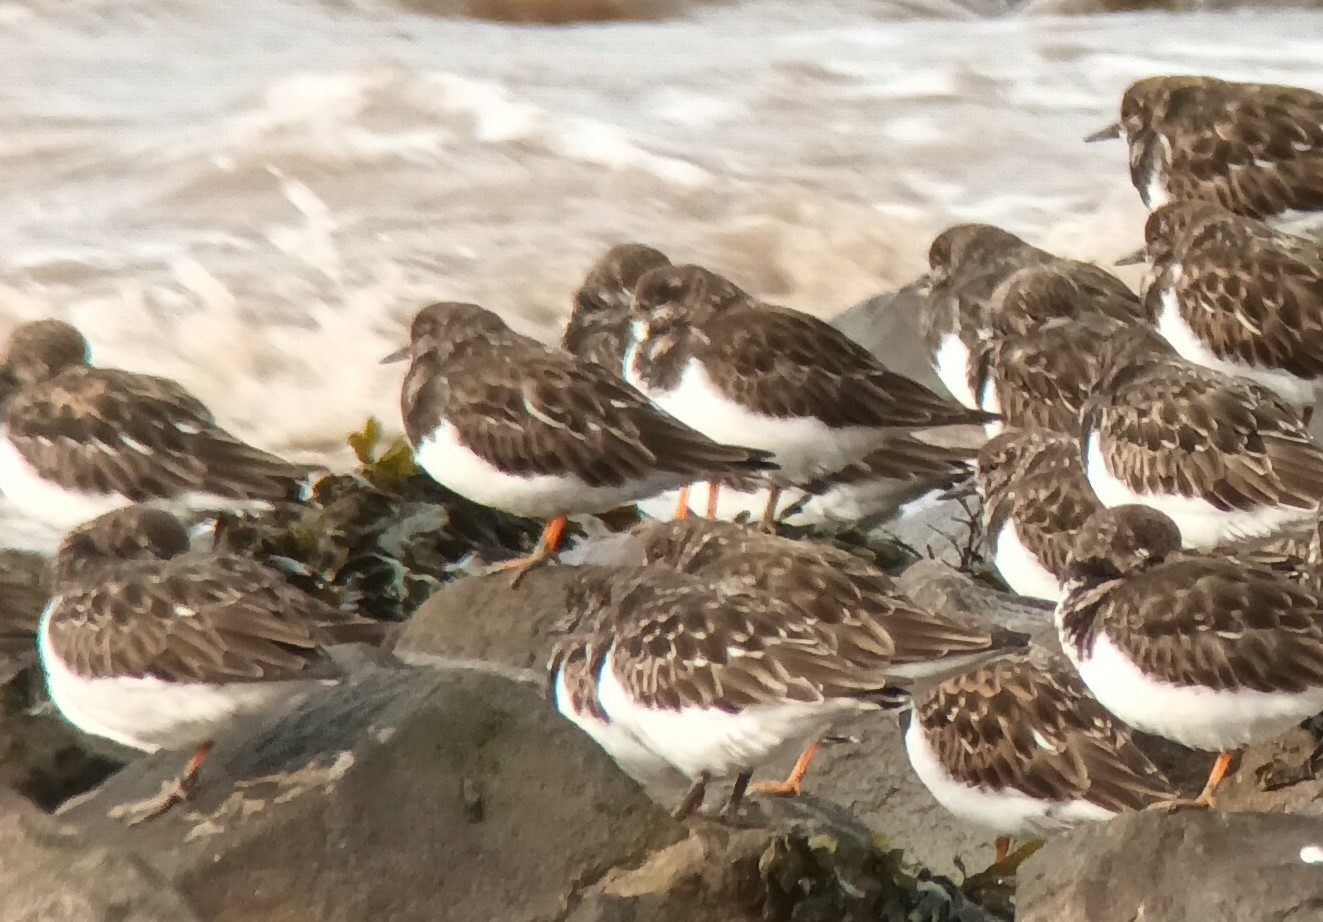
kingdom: Animalia
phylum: Chordata
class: Aves
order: Charadriiformes
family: Scolopacidae
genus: Arenaria
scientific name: Arenaria interpres
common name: Ruddy turnstone
